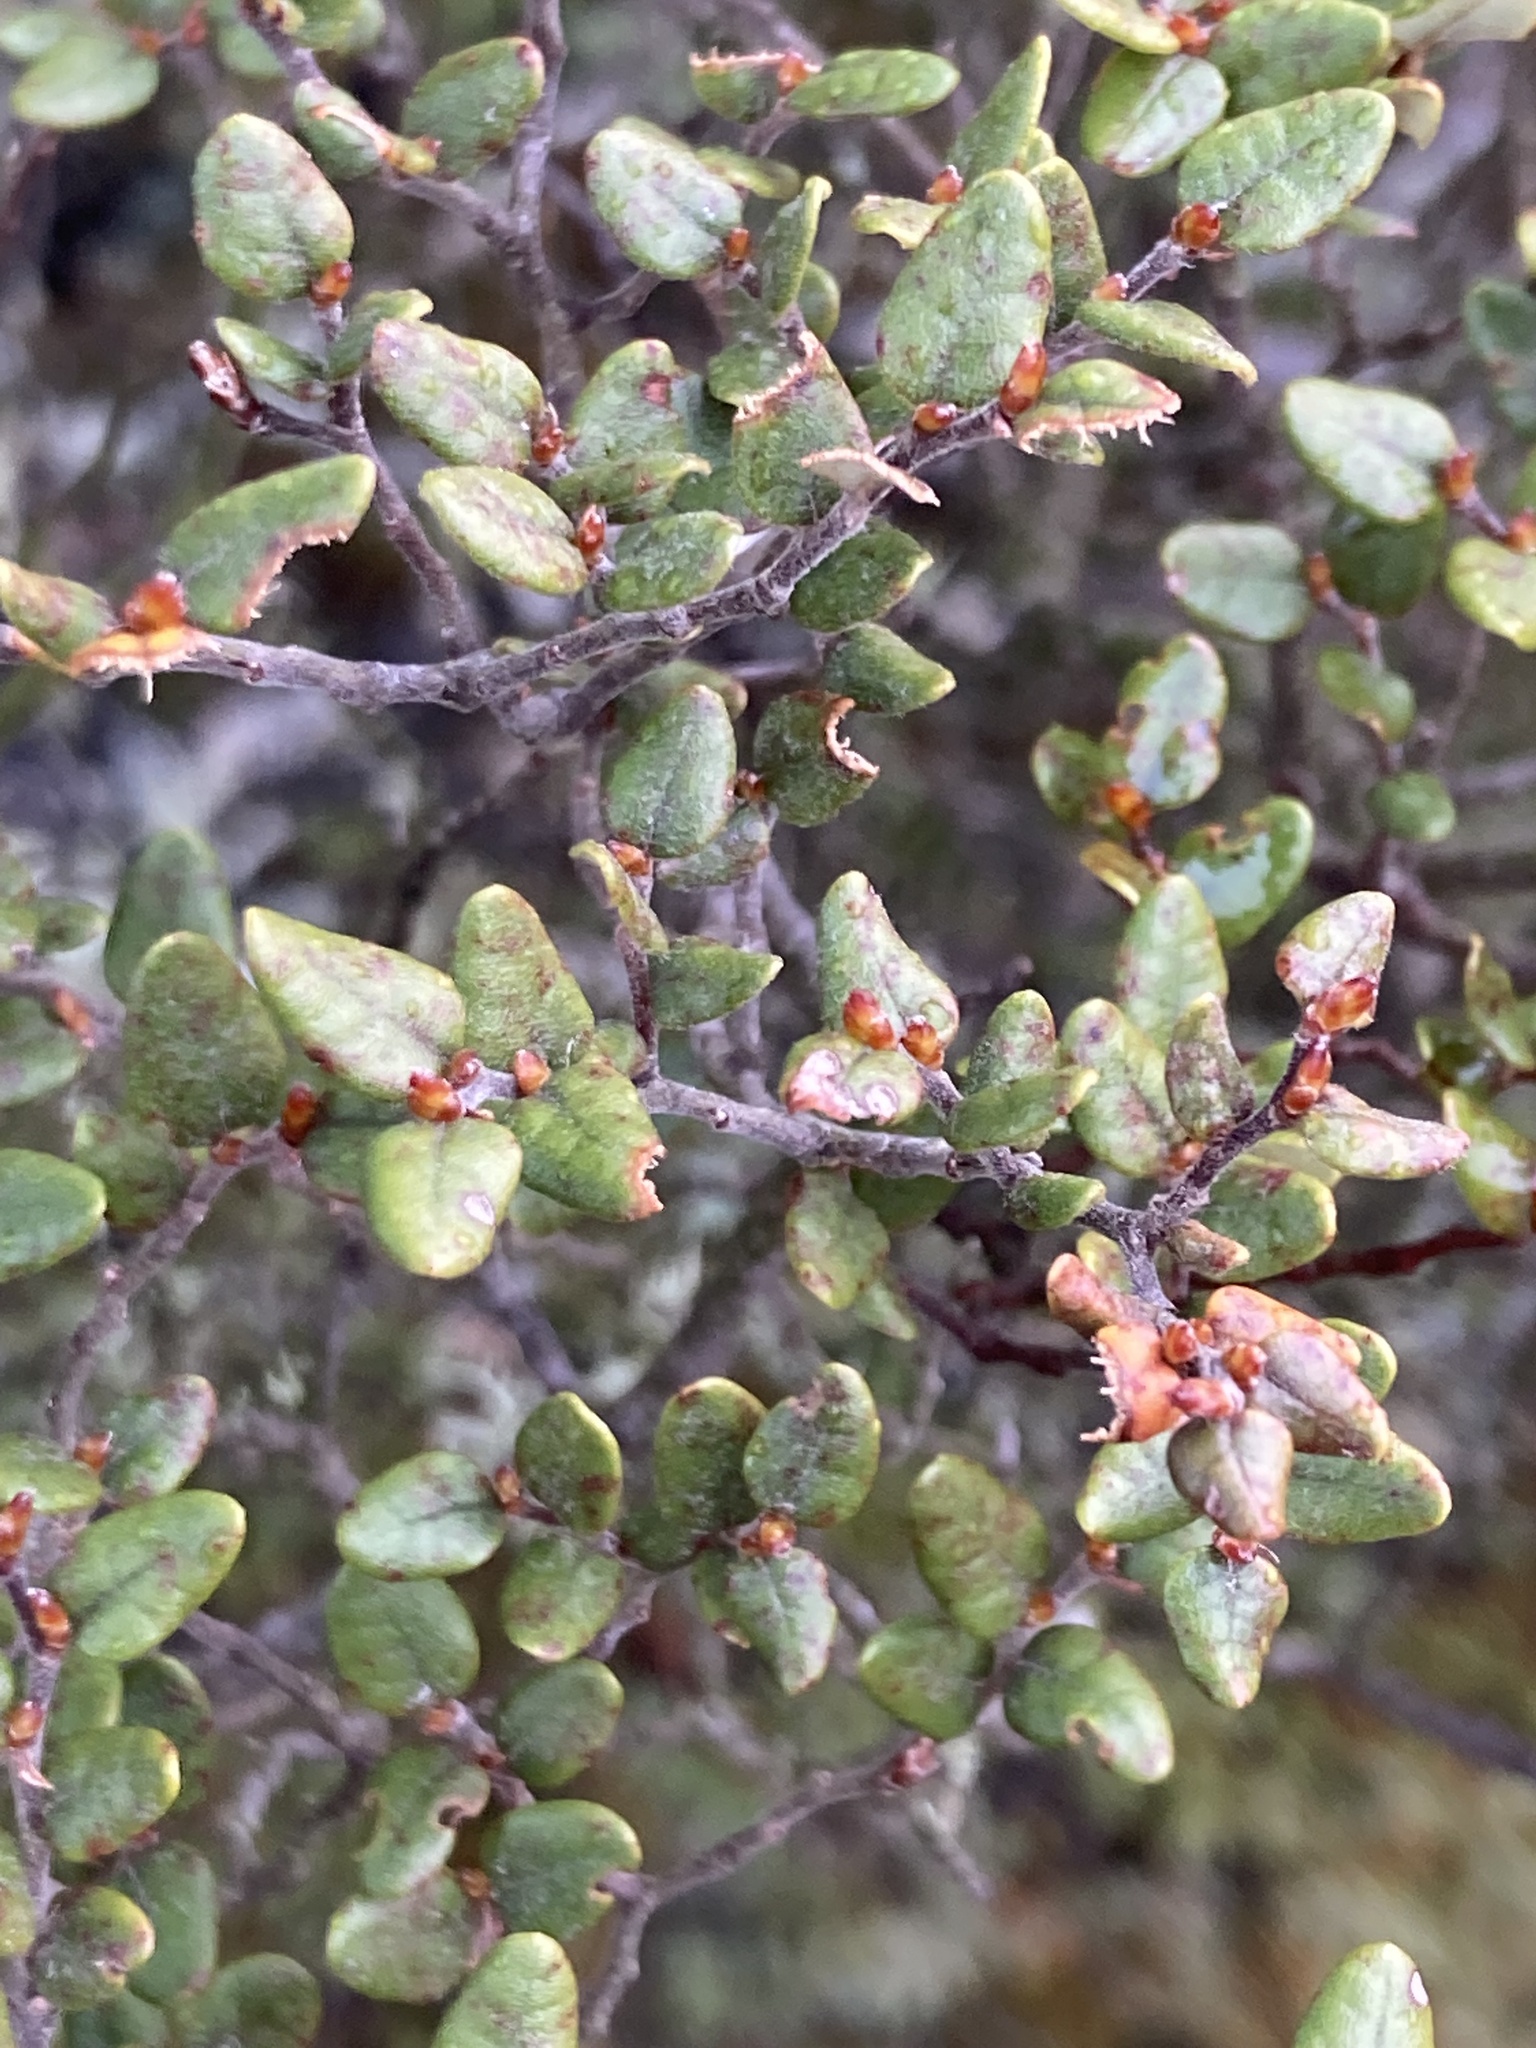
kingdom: Plantae
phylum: Tracheophyta
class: Magnoliopsida
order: Fagales
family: Nothofagaceae
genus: Nothofagus
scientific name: Nothofagus cliffortioides
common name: Mountain beech
